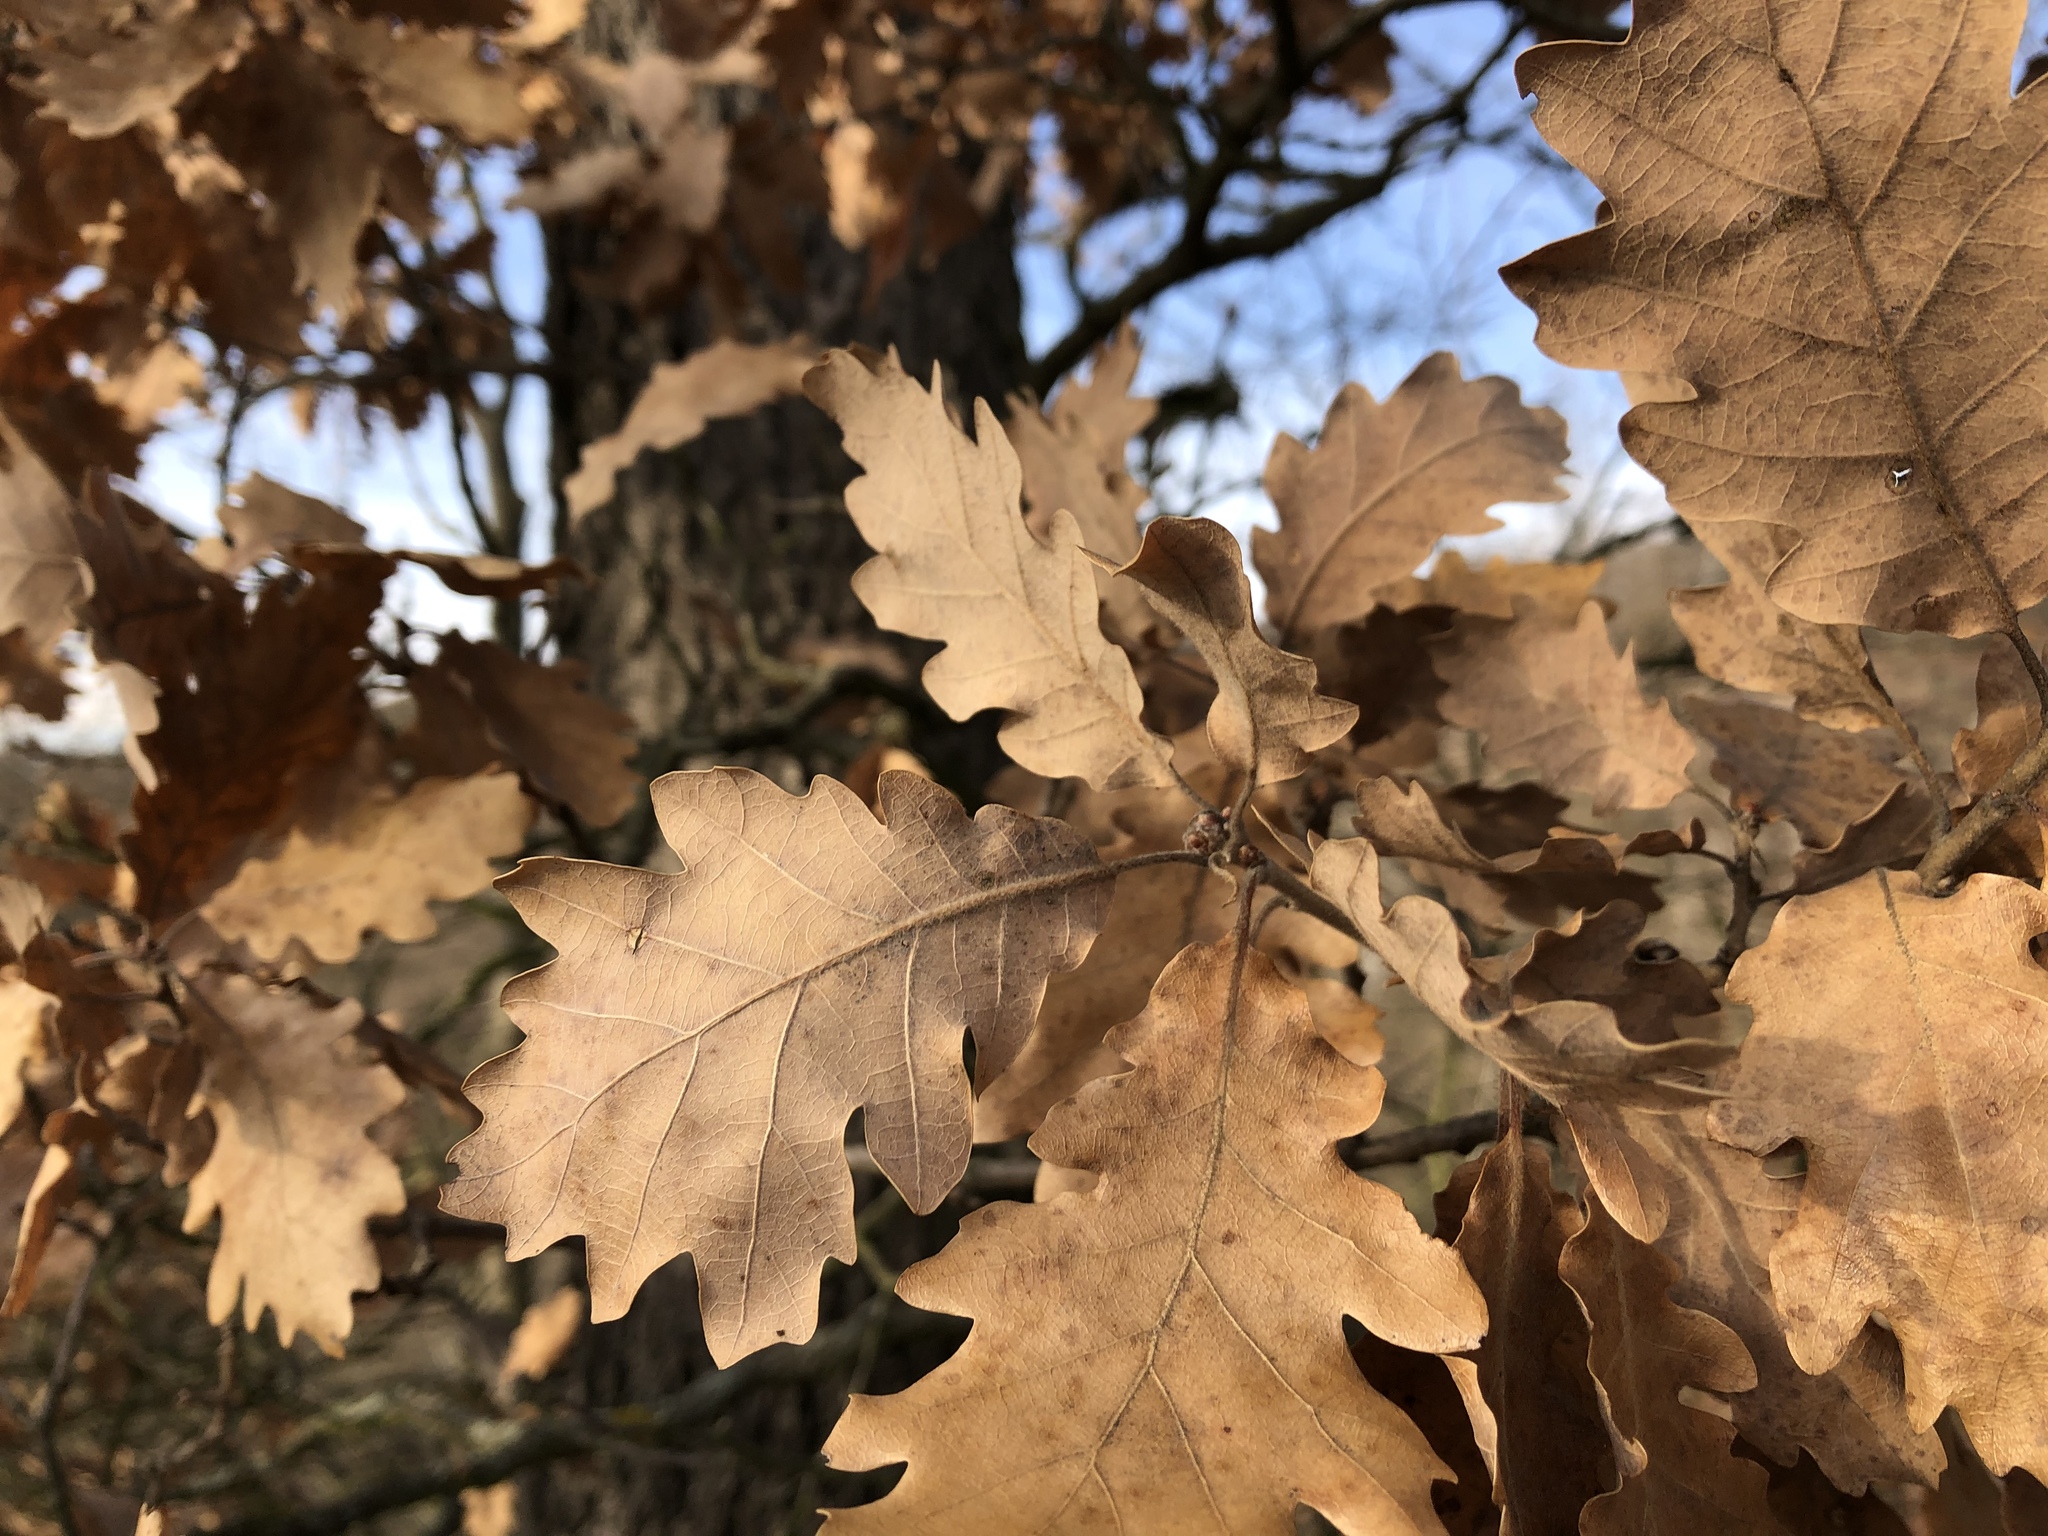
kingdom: Plantae
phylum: Tracheophyta
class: Magnoliopsida
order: Fagales
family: Fagaceae
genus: Quercus
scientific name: Quercus petraea
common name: Sessile oak
